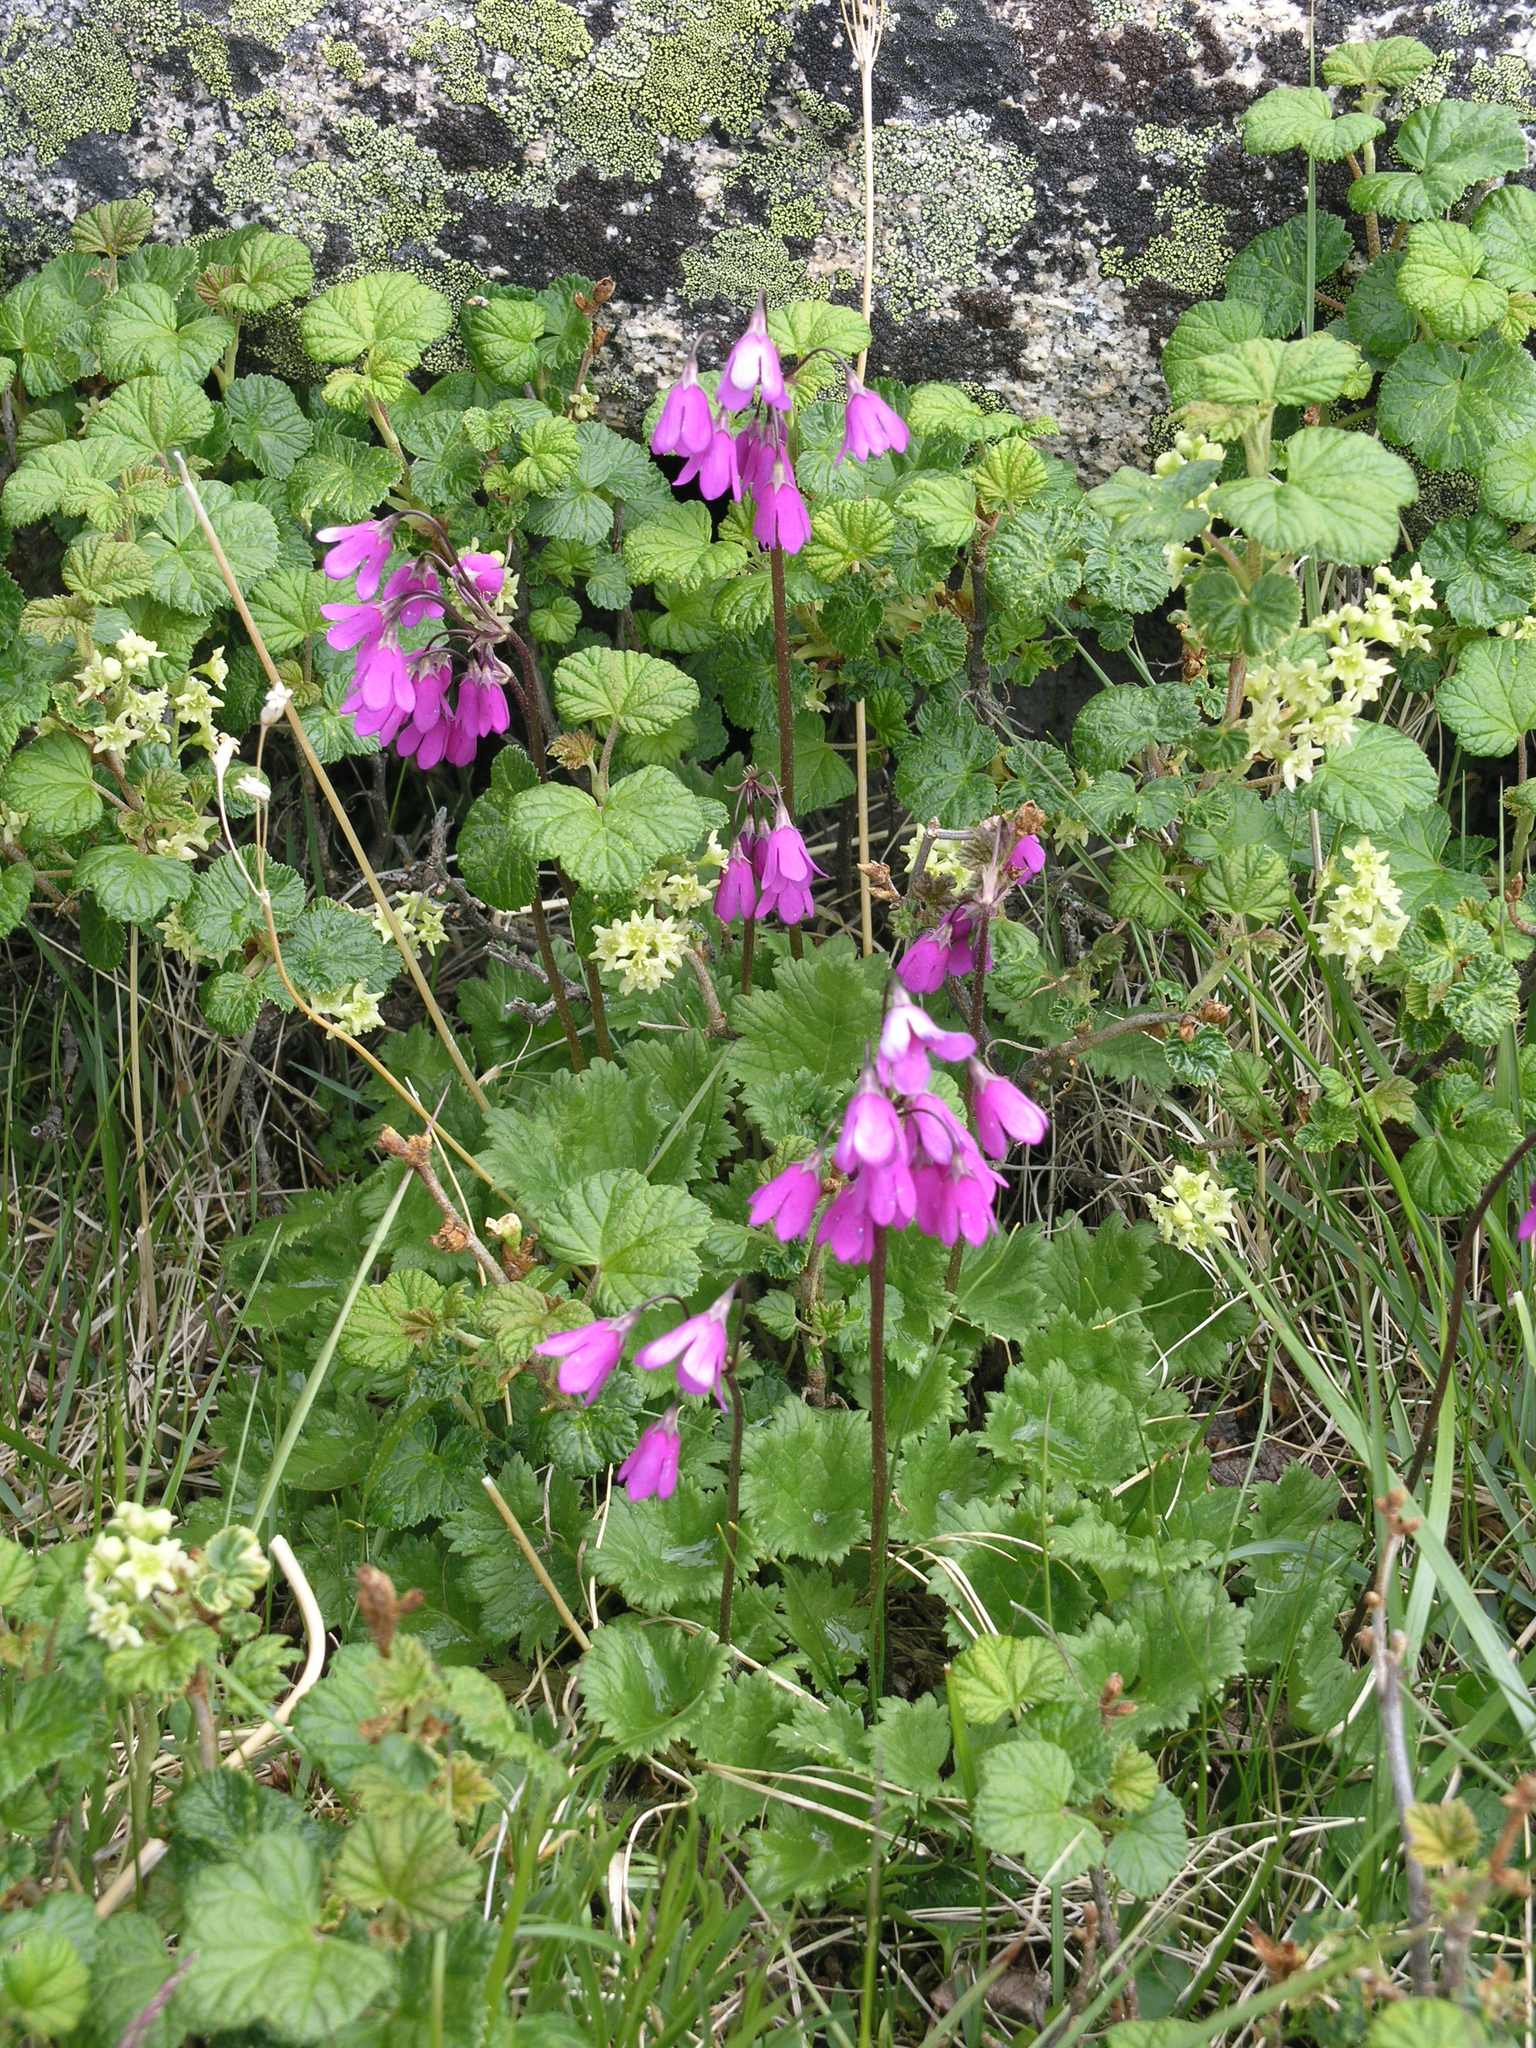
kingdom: Plantae
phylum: Tracheophyta
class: Magnoliopsida
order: Ericales
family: Primulaceae
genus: Primula
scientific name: Primula matthioli
